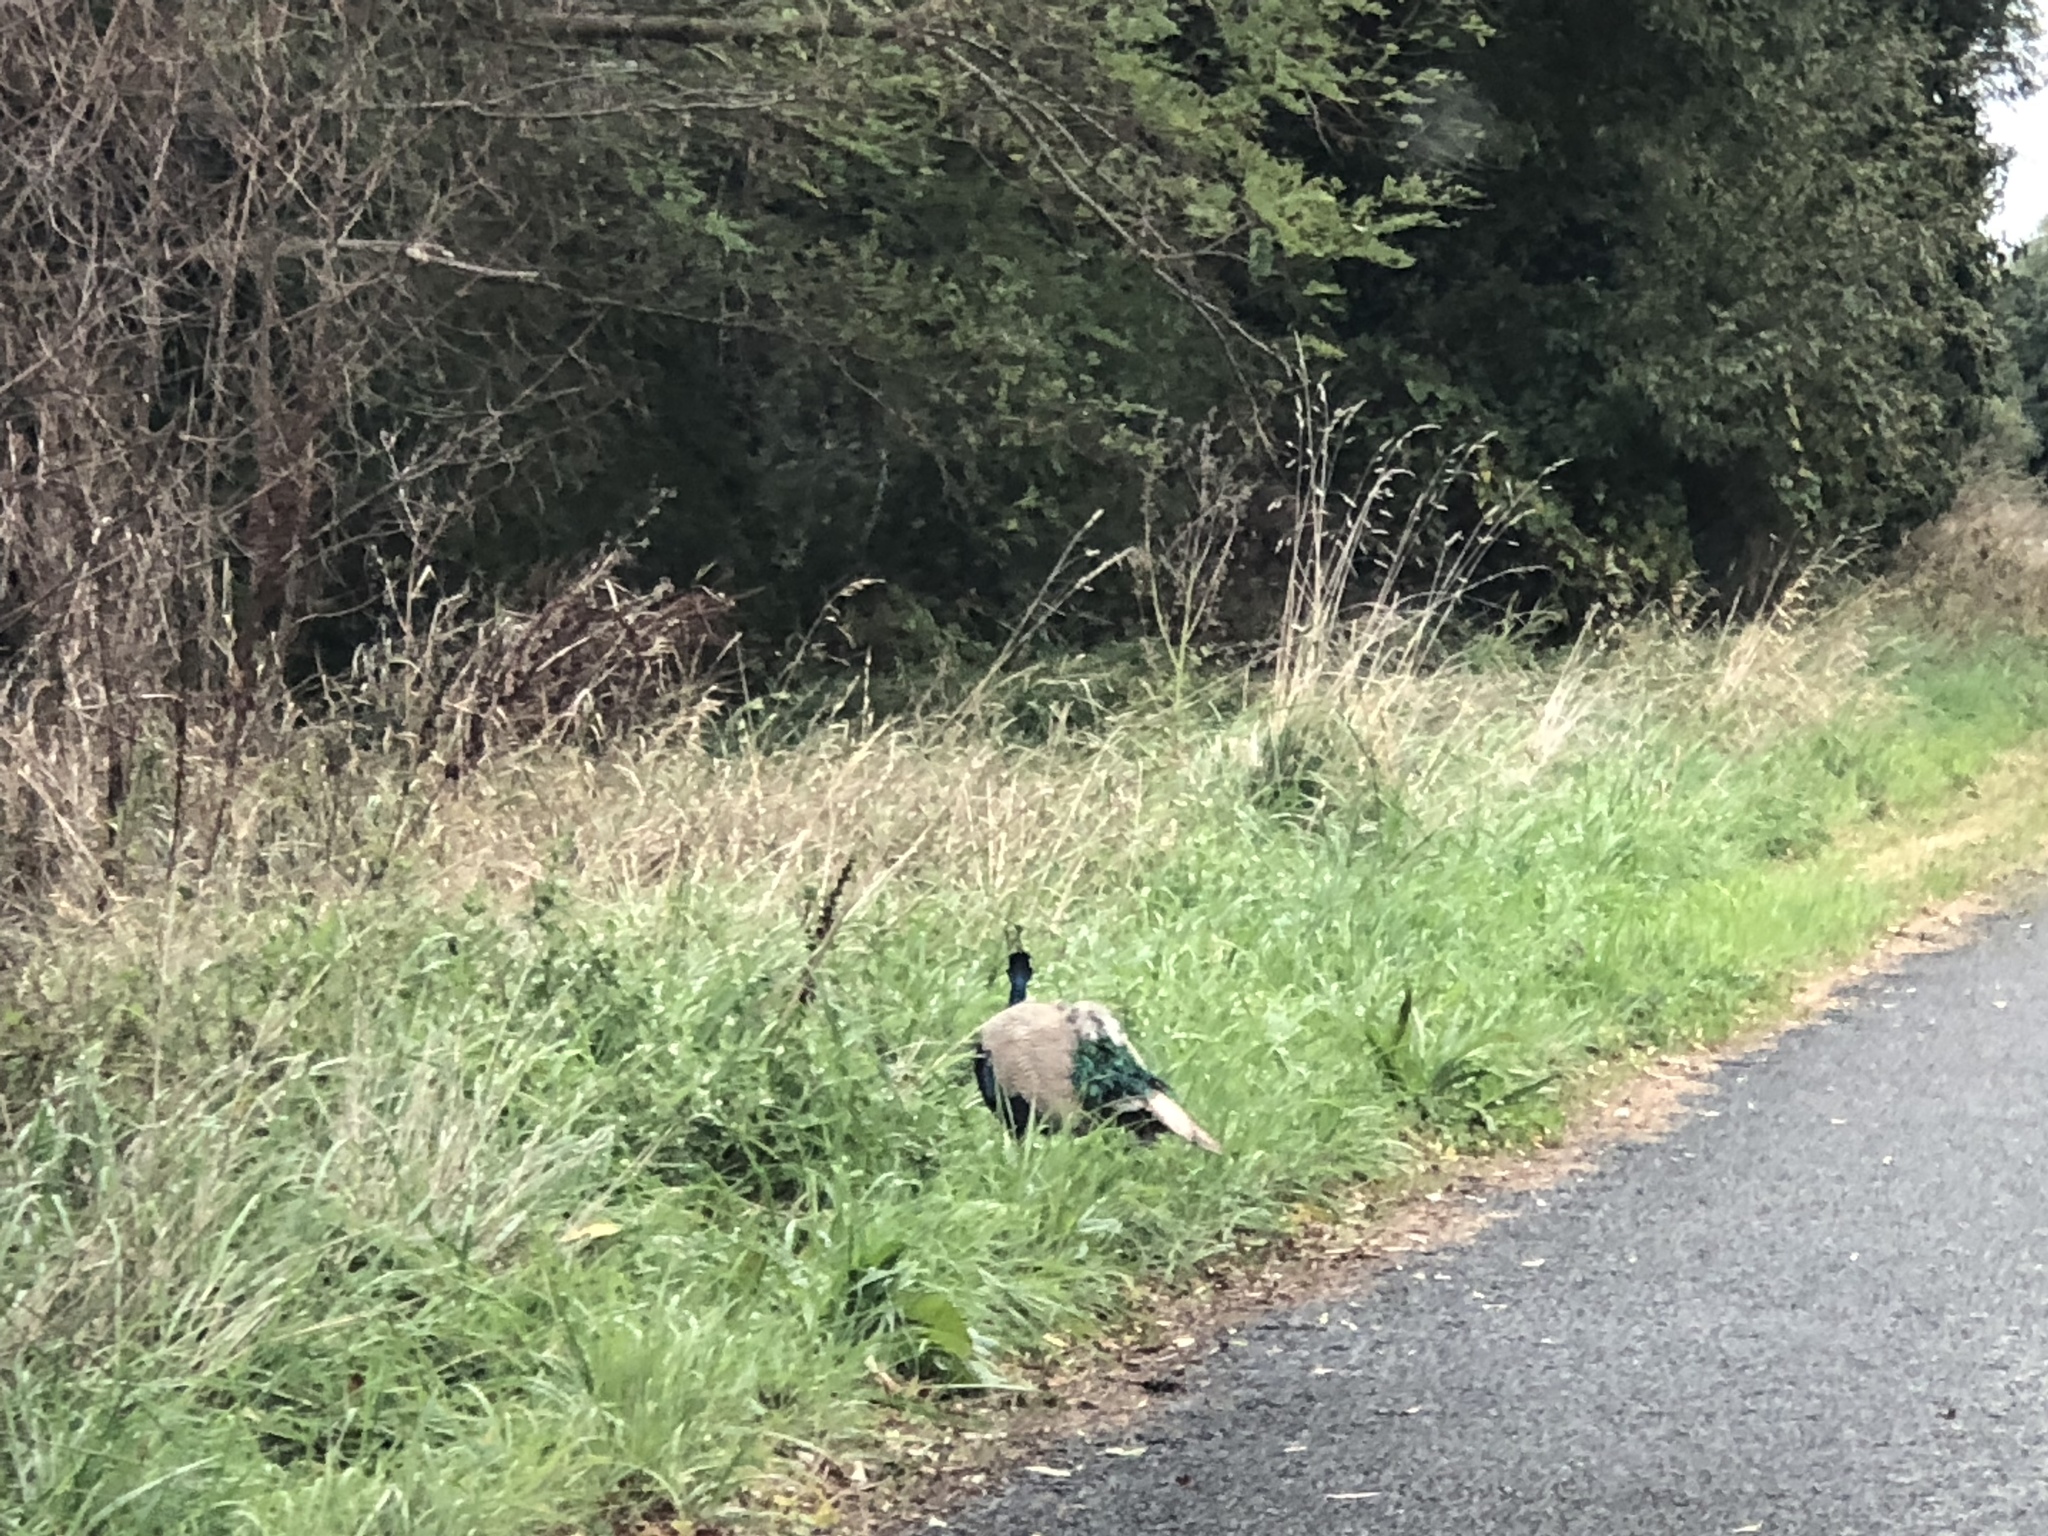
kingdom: Animalia
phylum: Chordata
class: Aves
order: Galliformes
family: Phasianidae
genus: Pavo
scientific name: Pavo cristatus
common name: Indian peafowl
